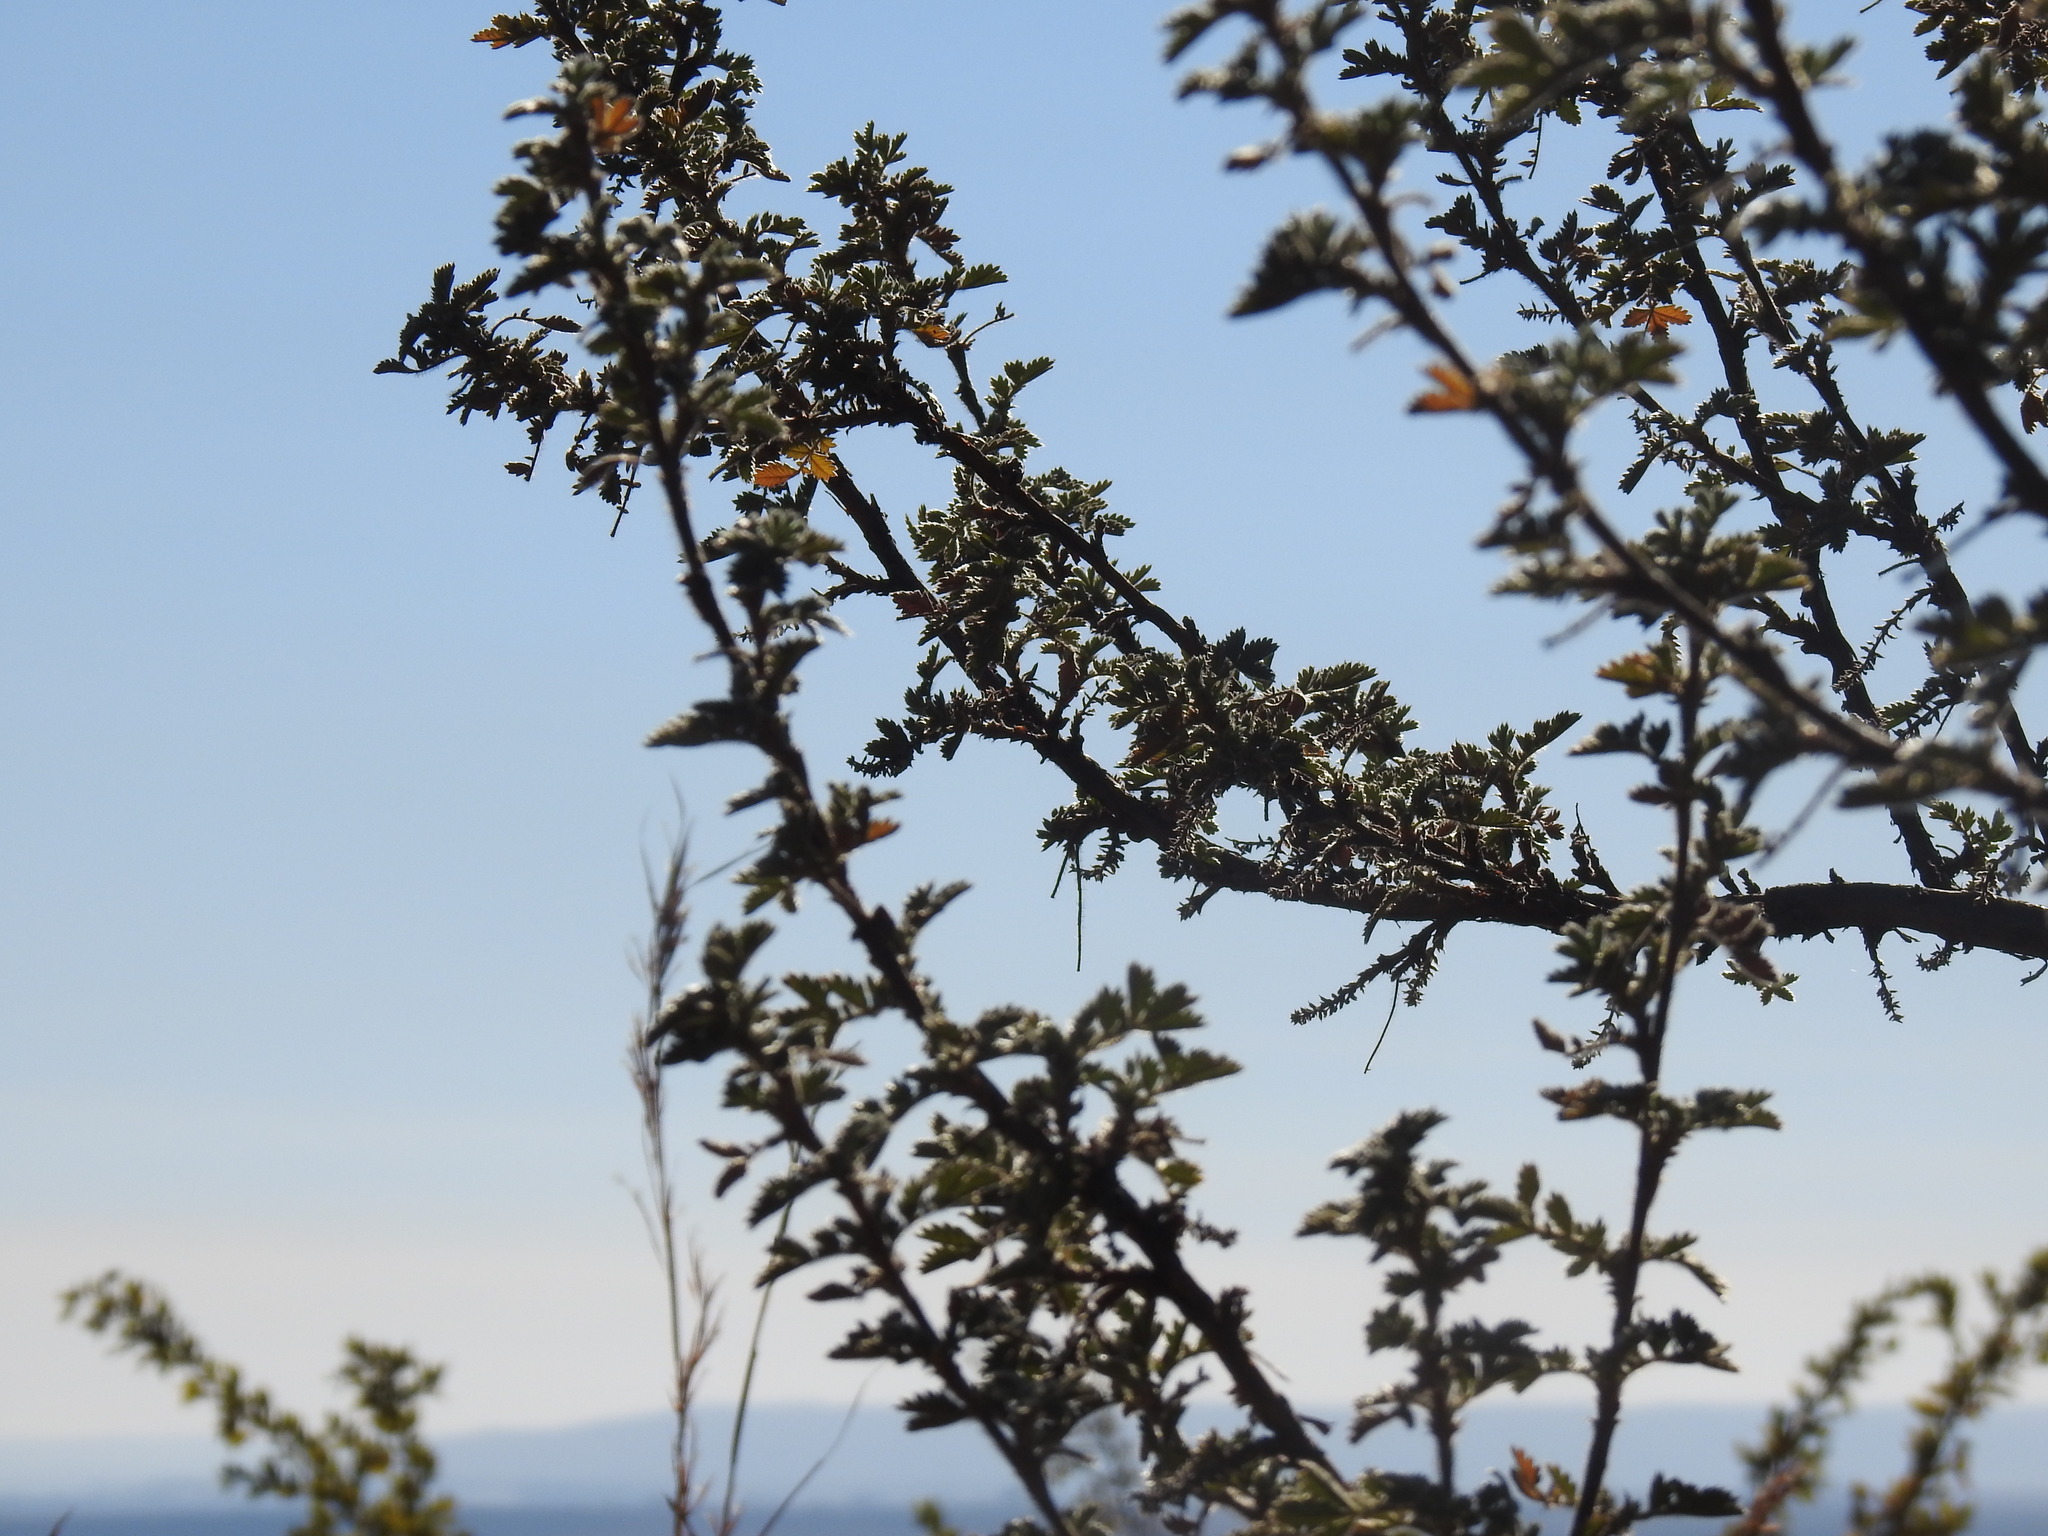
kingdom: Plantae
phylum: Tracheophyta
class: Magnoliopsida
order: Rosales
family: Rosaceae
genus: Leucosidea
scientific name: Leucosidea sericea
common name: Oldwood
